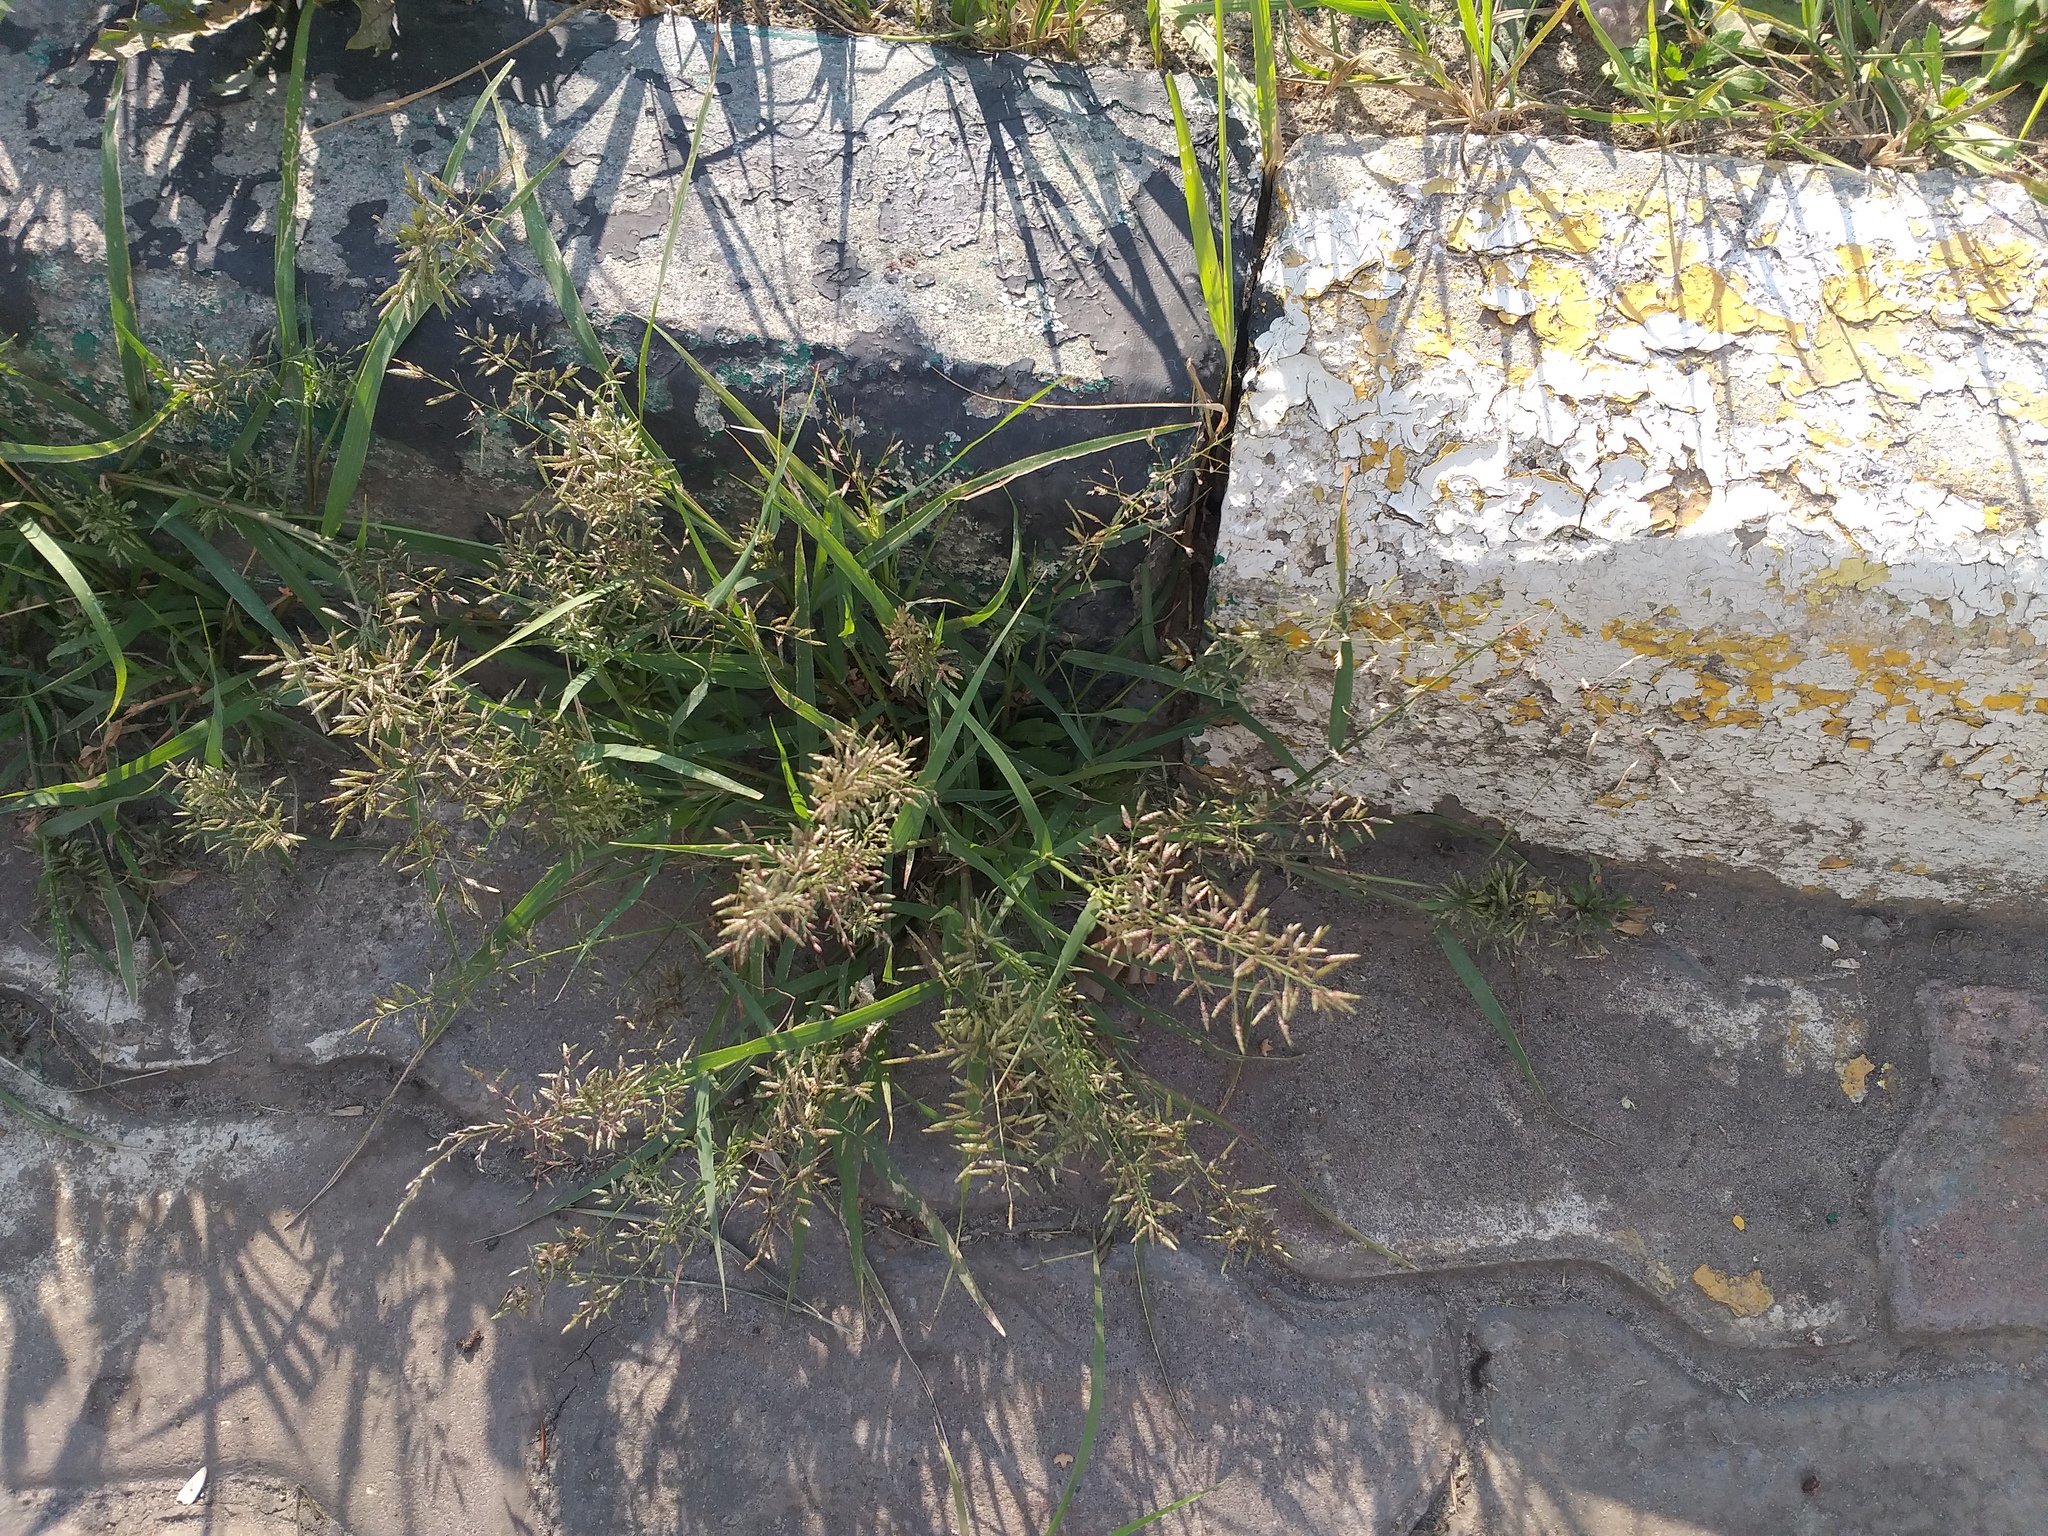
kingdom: Plantae
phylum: Tracheophyta
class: Liliopsida
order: Poales
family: Poaceae
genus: Eragrostis
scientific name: Eragrostis minor
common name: Small love-grass
